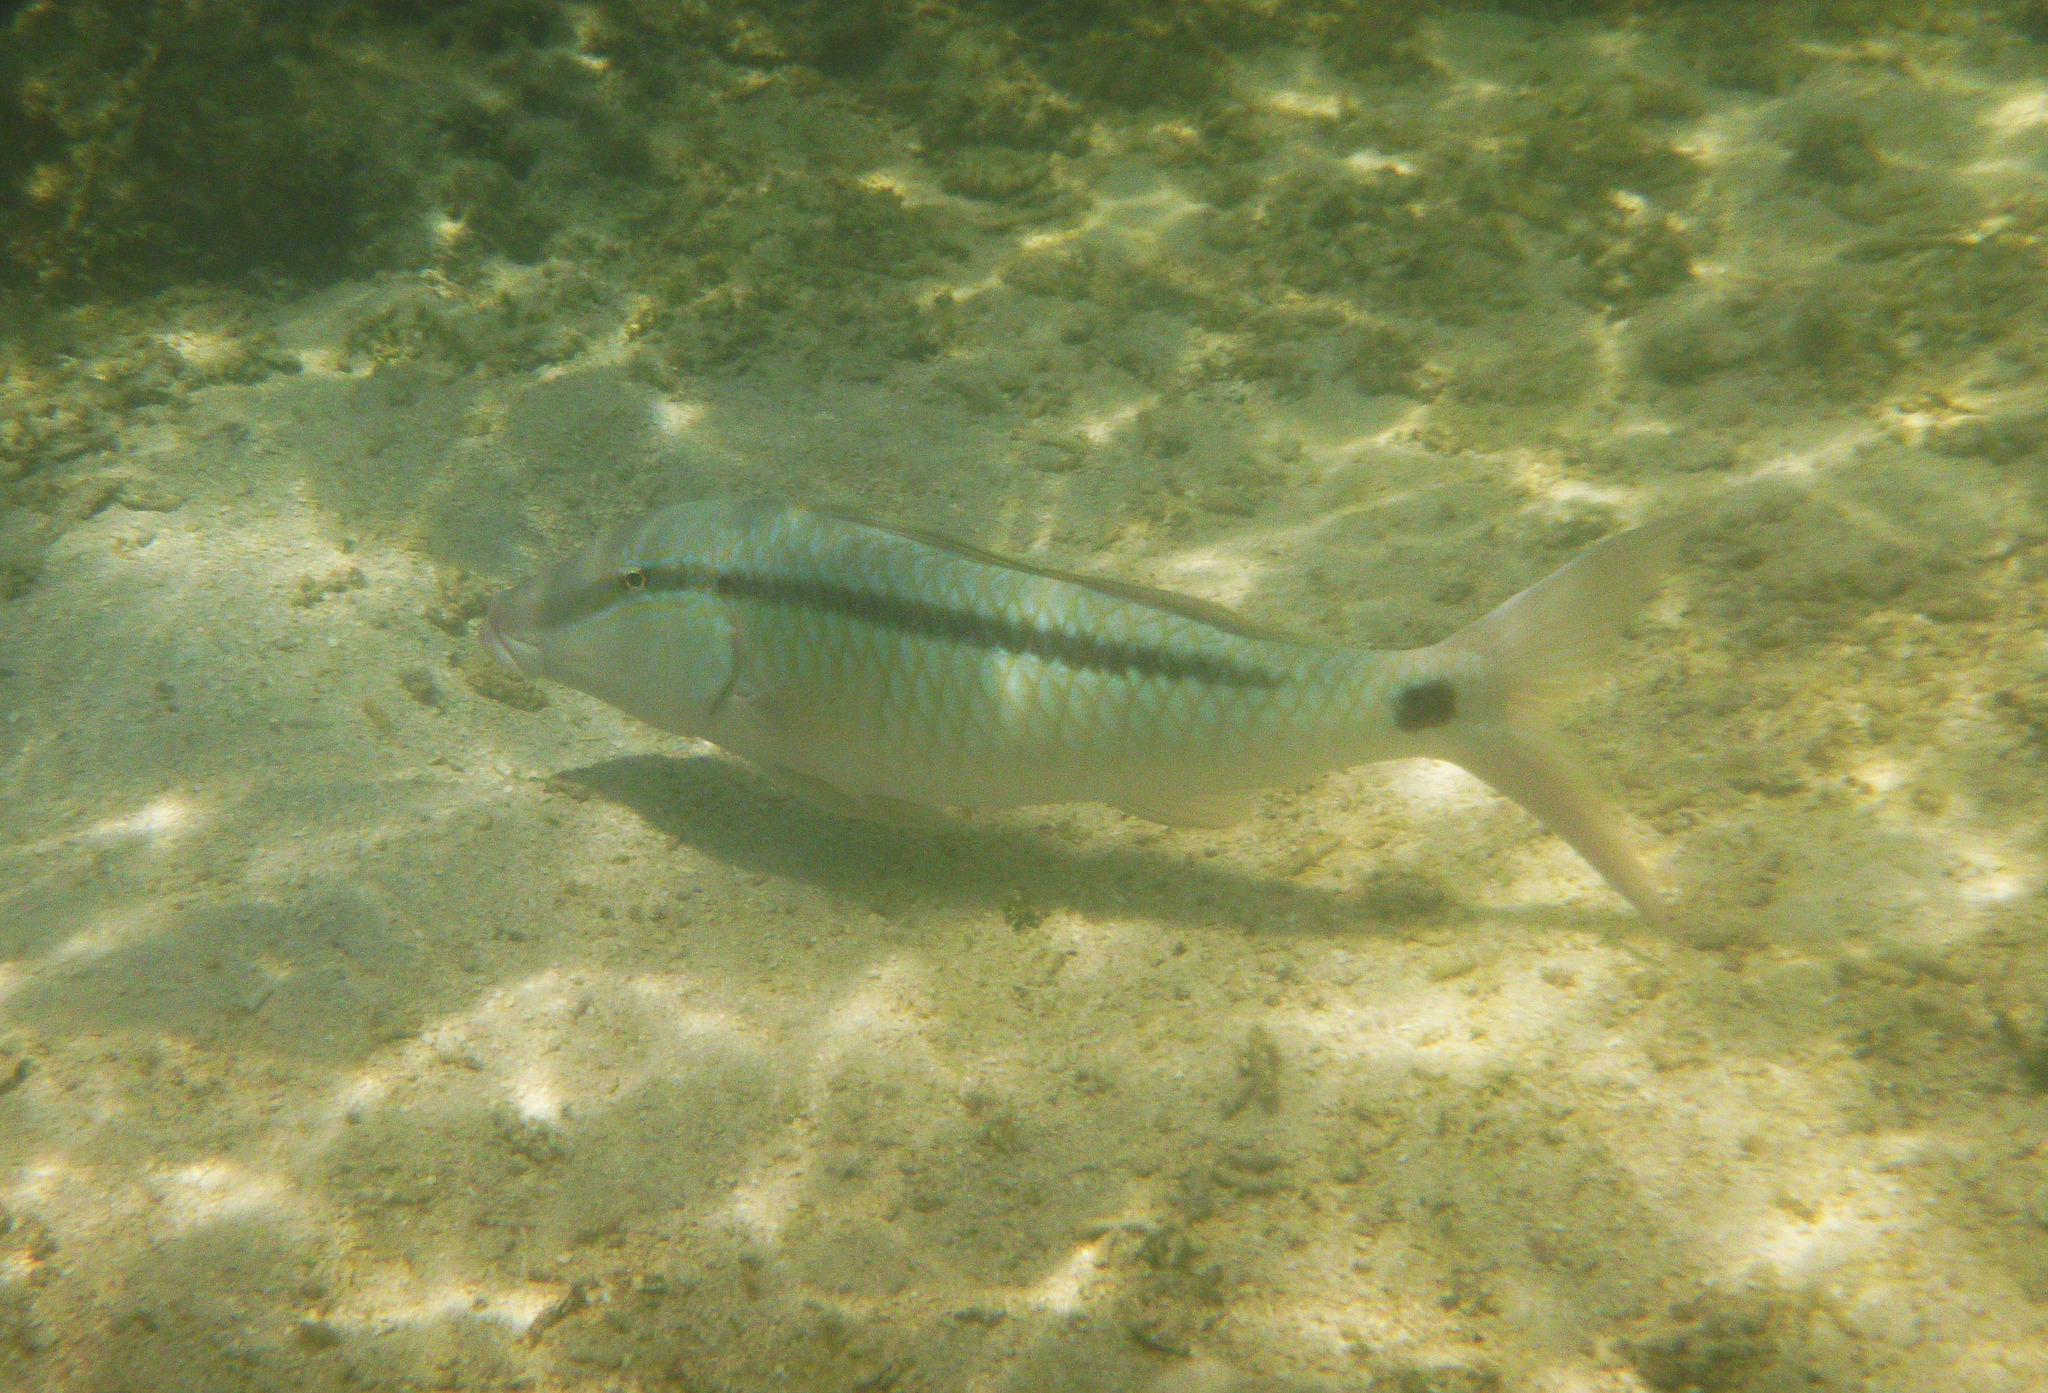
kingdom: Animalia
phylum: Chordata
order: Perciformes
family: Mullidae
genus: Parupeneus
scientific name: Parupeneus barberinus
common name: Dash-and-dot goatfish
